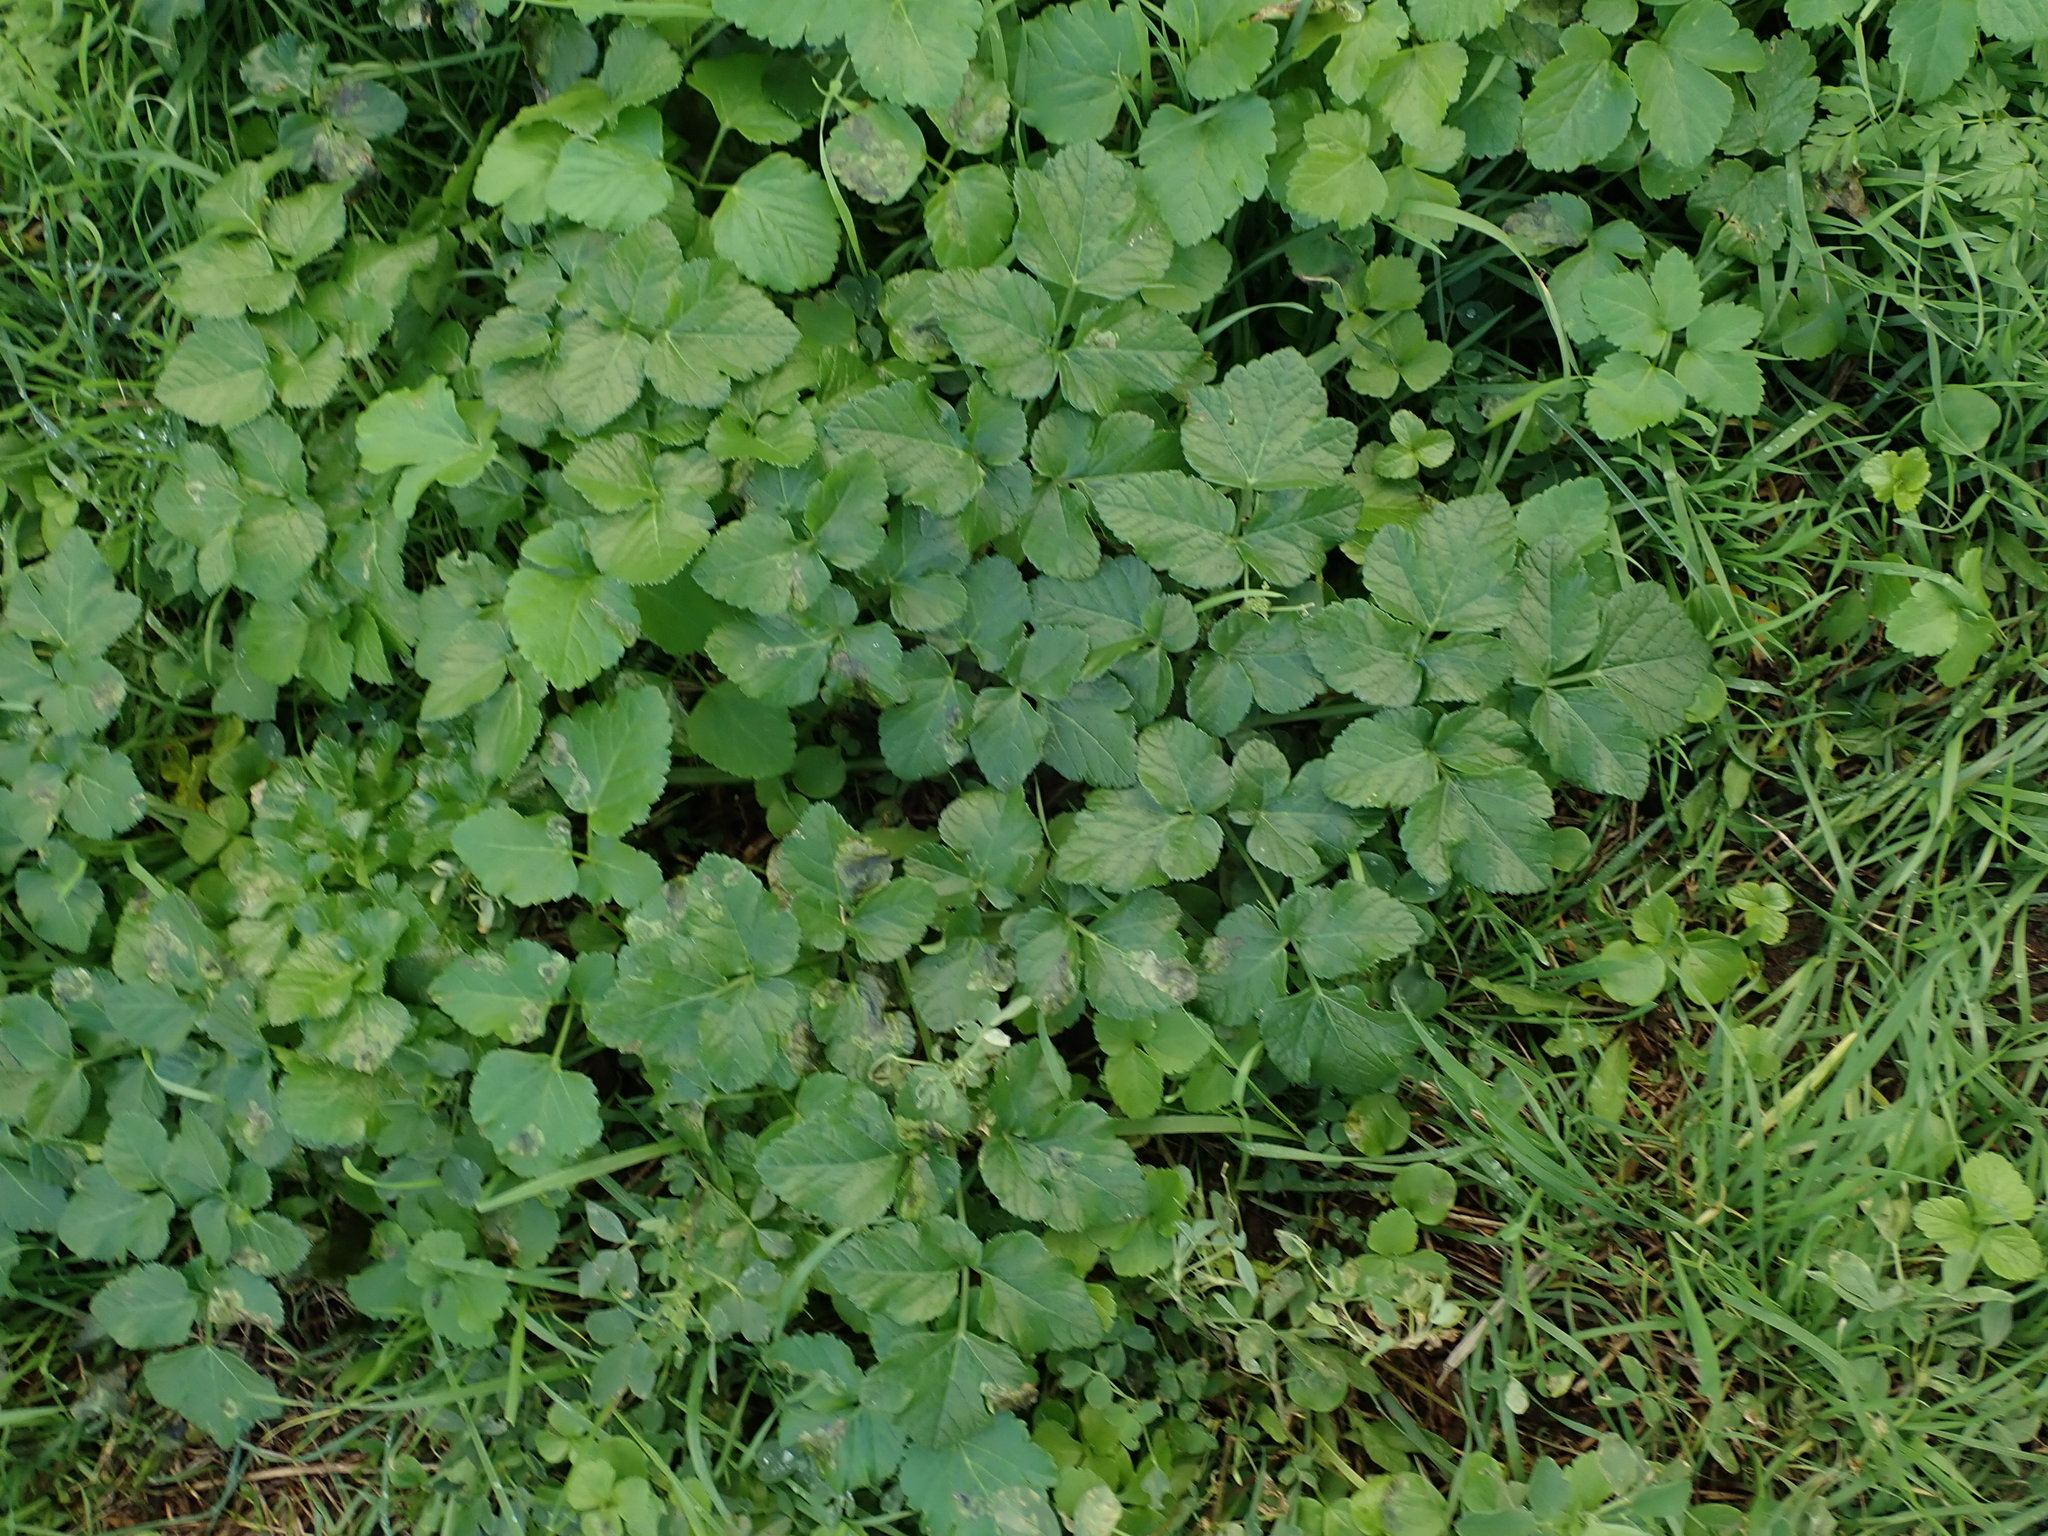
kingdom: Plantae
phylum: Tracheophyta
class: Magnoliopsida
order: Apiales
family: Apiaceae
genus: Smyrnium
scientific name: Smyrnium olusatrum
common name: Alexanders
